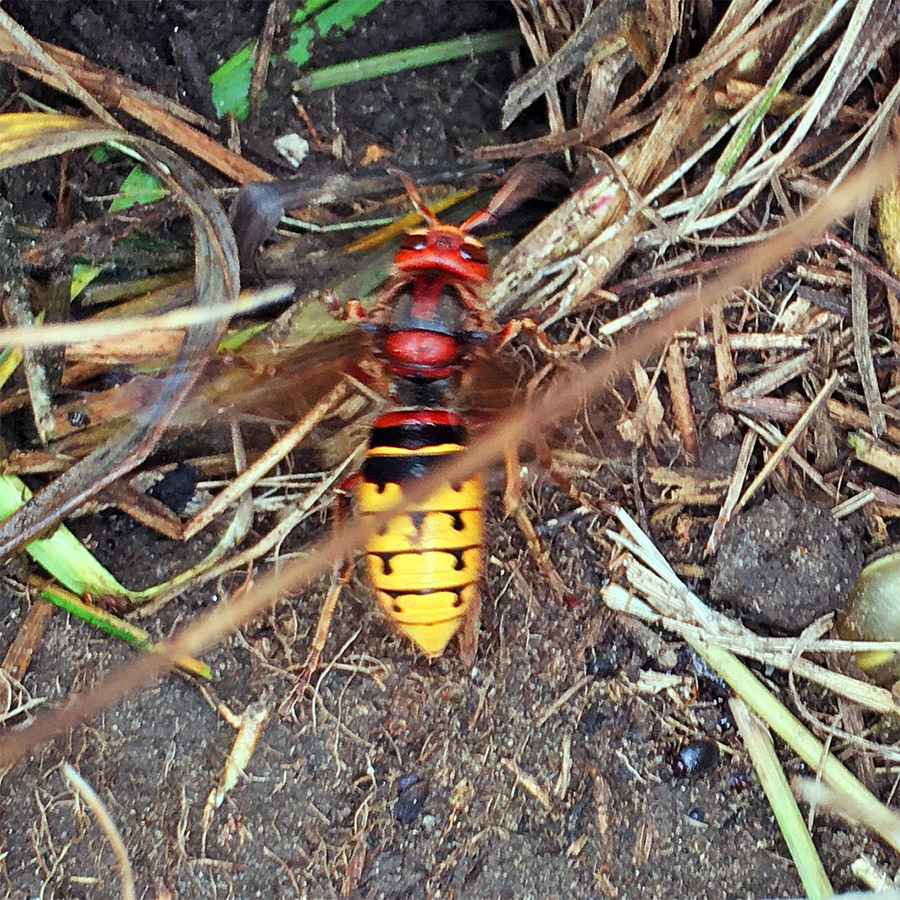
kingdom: Animalia
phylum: Arthropoda
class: Insecta
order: Hymenoptera
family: Vespidae
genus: Vespa
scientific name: Vespa crabro
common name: Hornet
